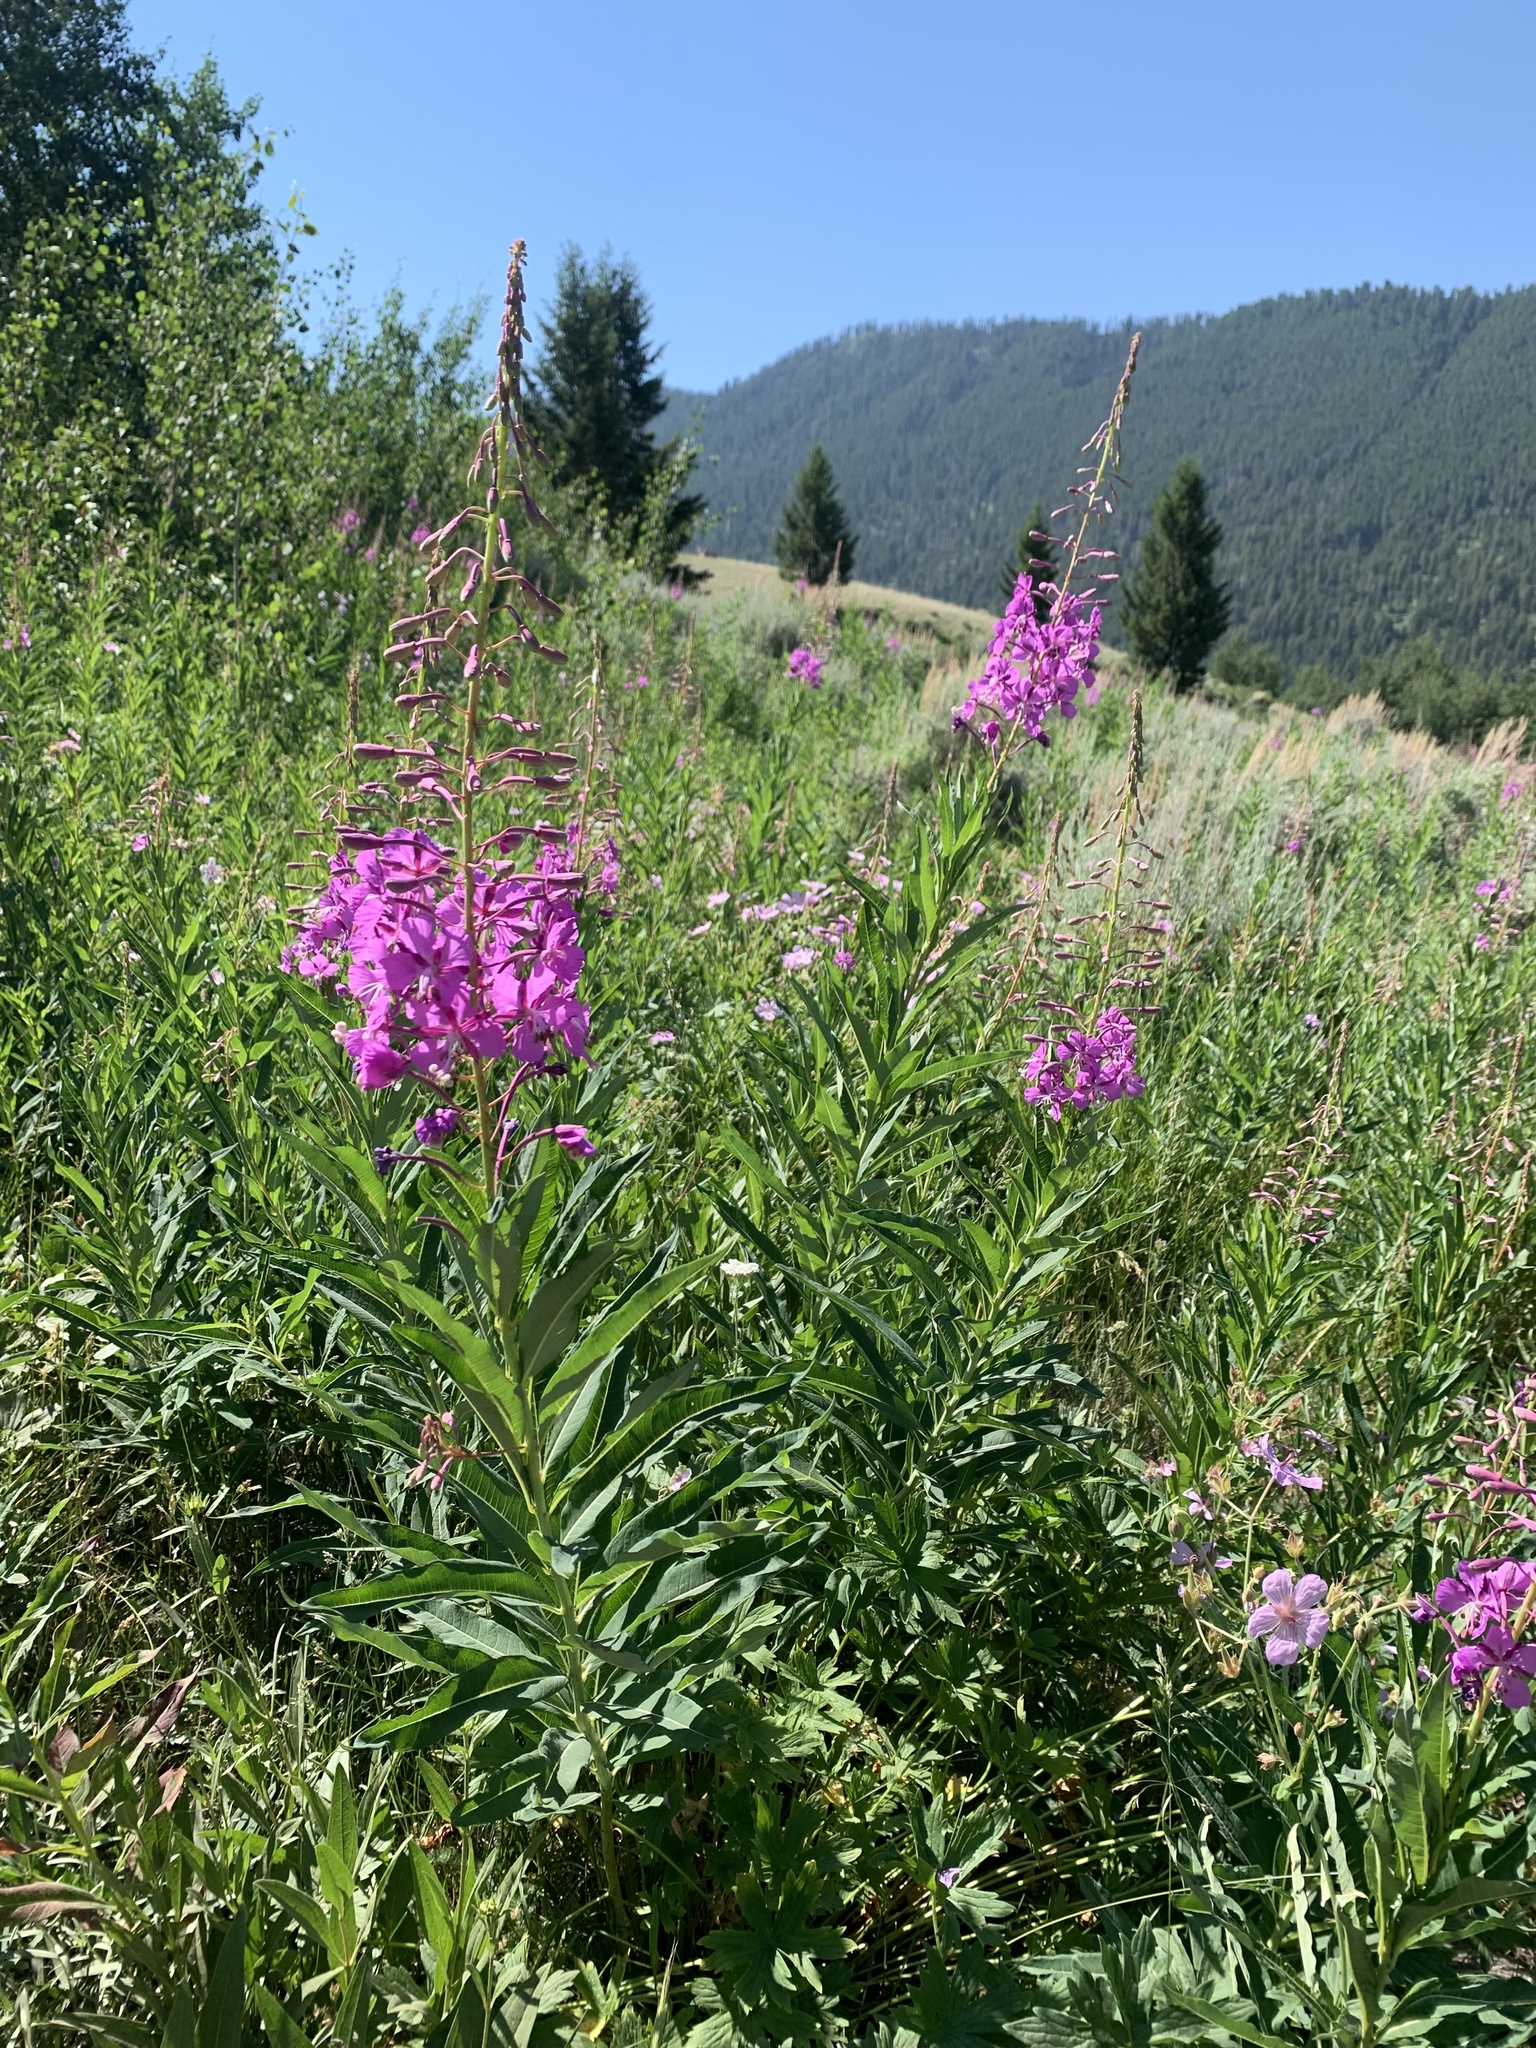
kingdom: Plantae
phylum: Tracheophyta
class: Magnoliopsida
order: Myrtales
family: Onagraceae
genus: Chamaenerion
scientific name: Chamaenerion angustifolium
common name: Fireweed
